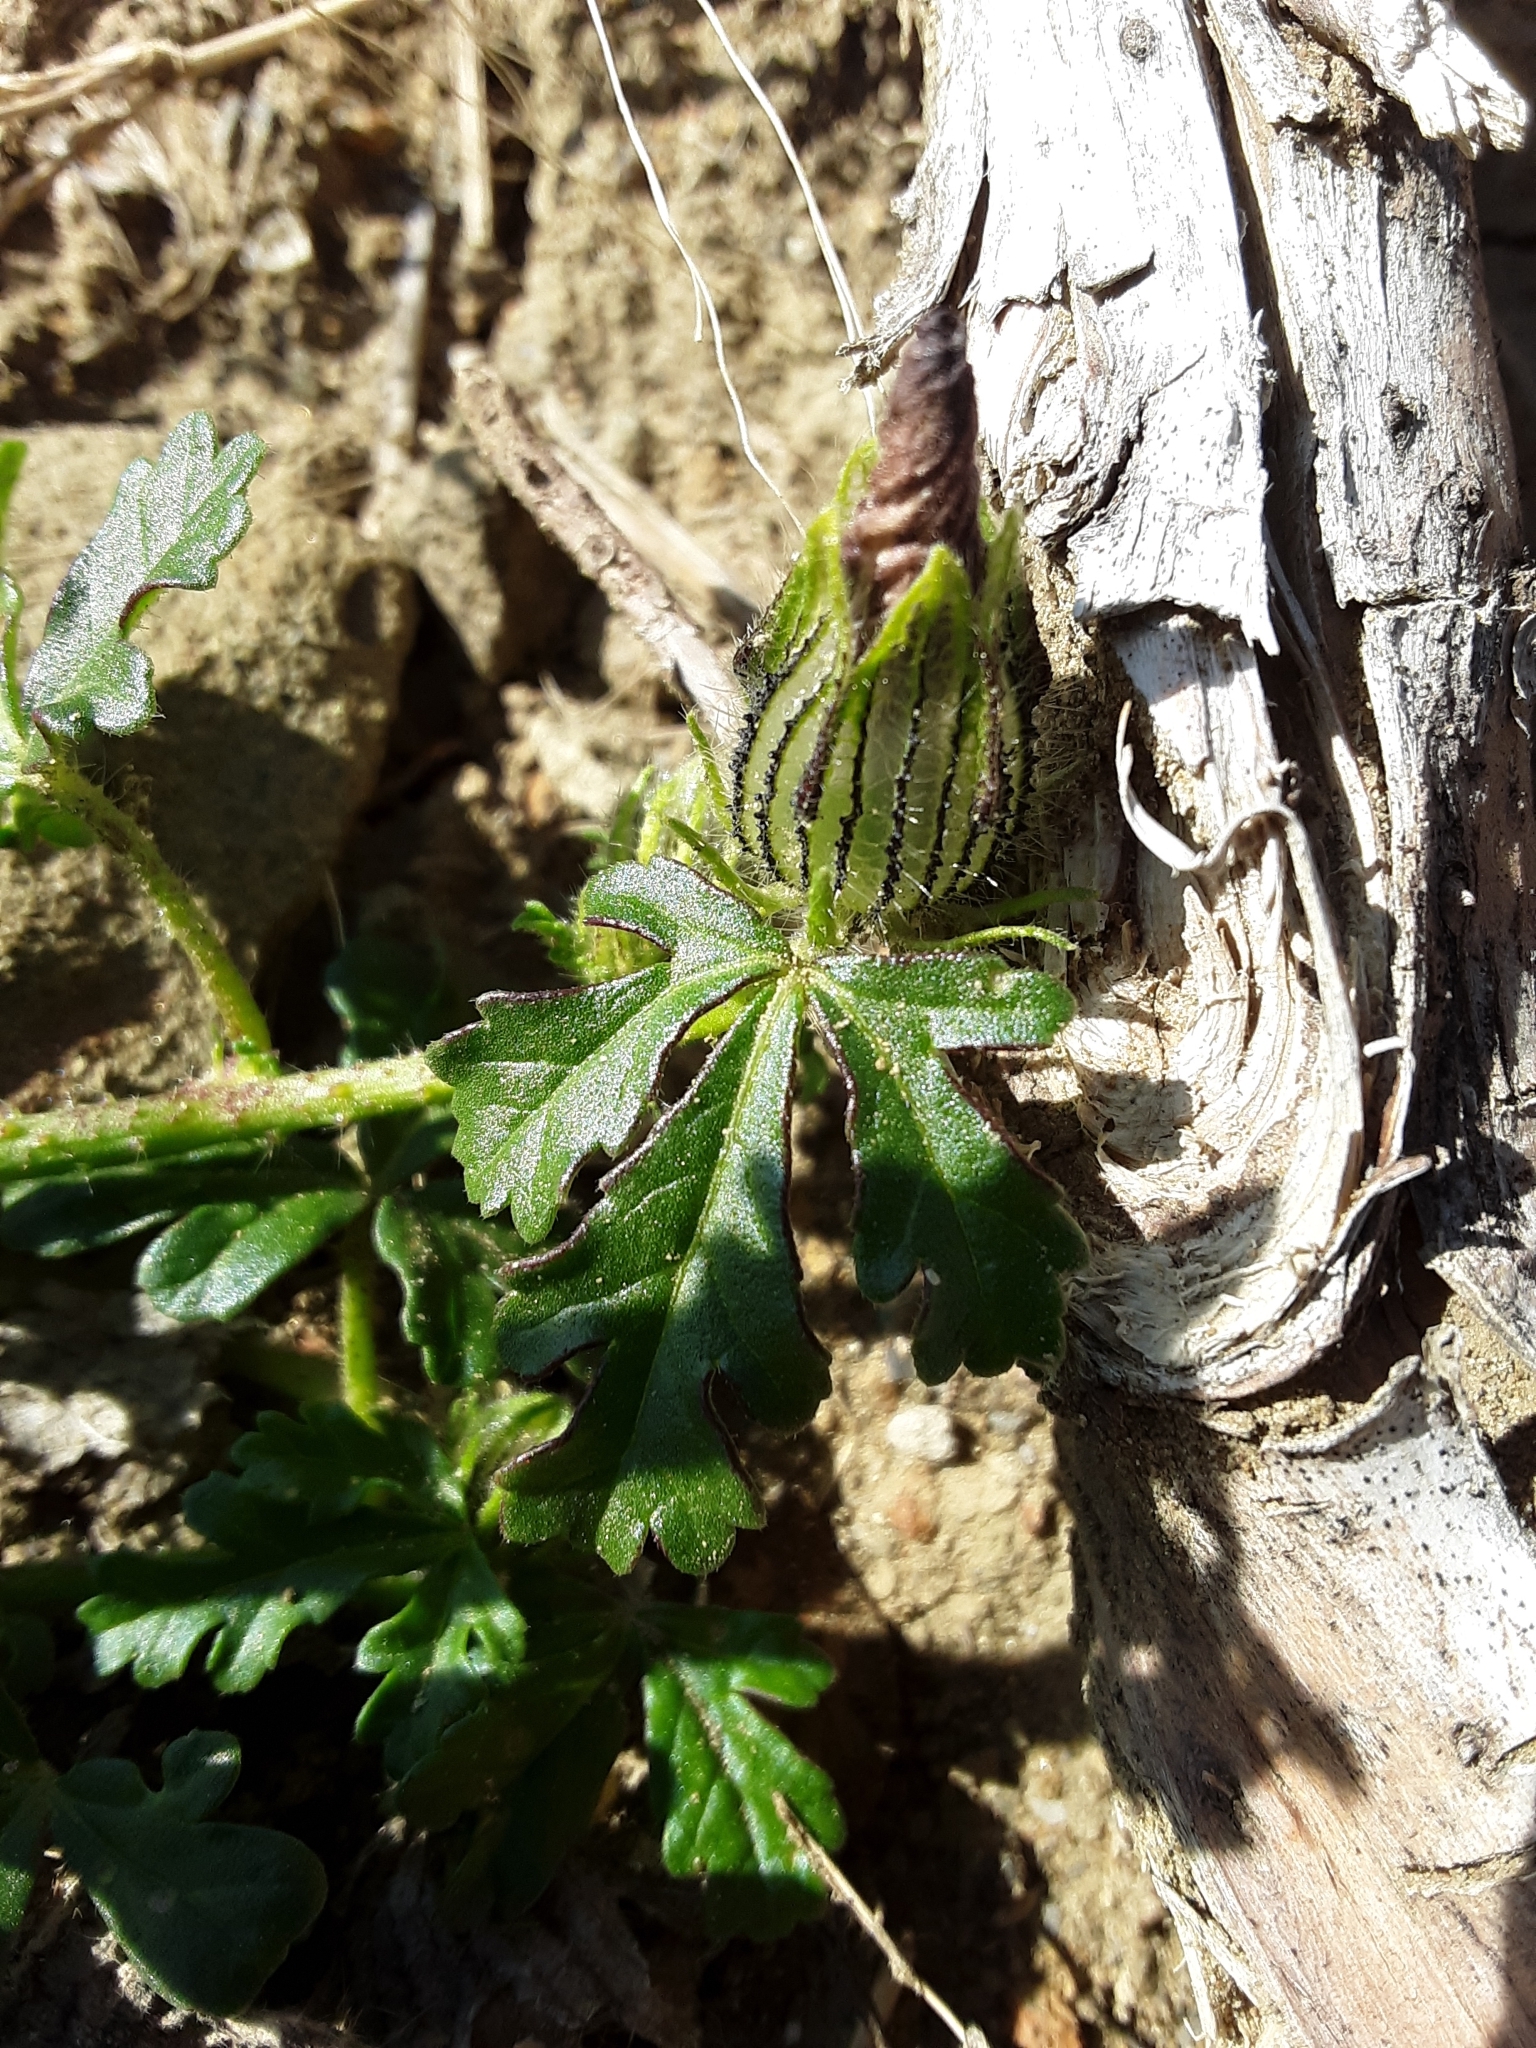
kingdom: Plantae
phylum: Tracheophyta
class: Magnoliopsida
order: Malvales
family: Malvaceae
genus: Hibiscus
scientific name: Hibiscus trionum
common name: Bladder ketmia
